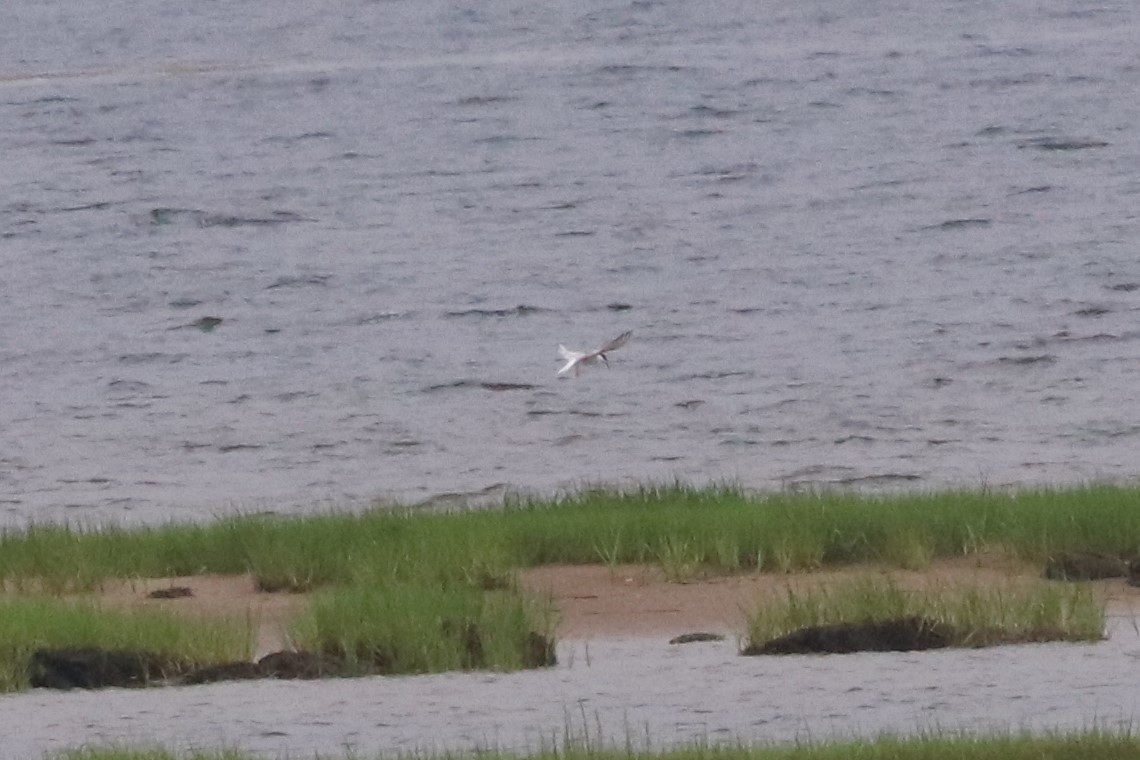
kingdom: Animalia
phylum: Chordata
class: Aves
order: Charadriiformes
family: Laridae
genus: Sterna
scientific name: Sterna hirundo
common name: Common tern
